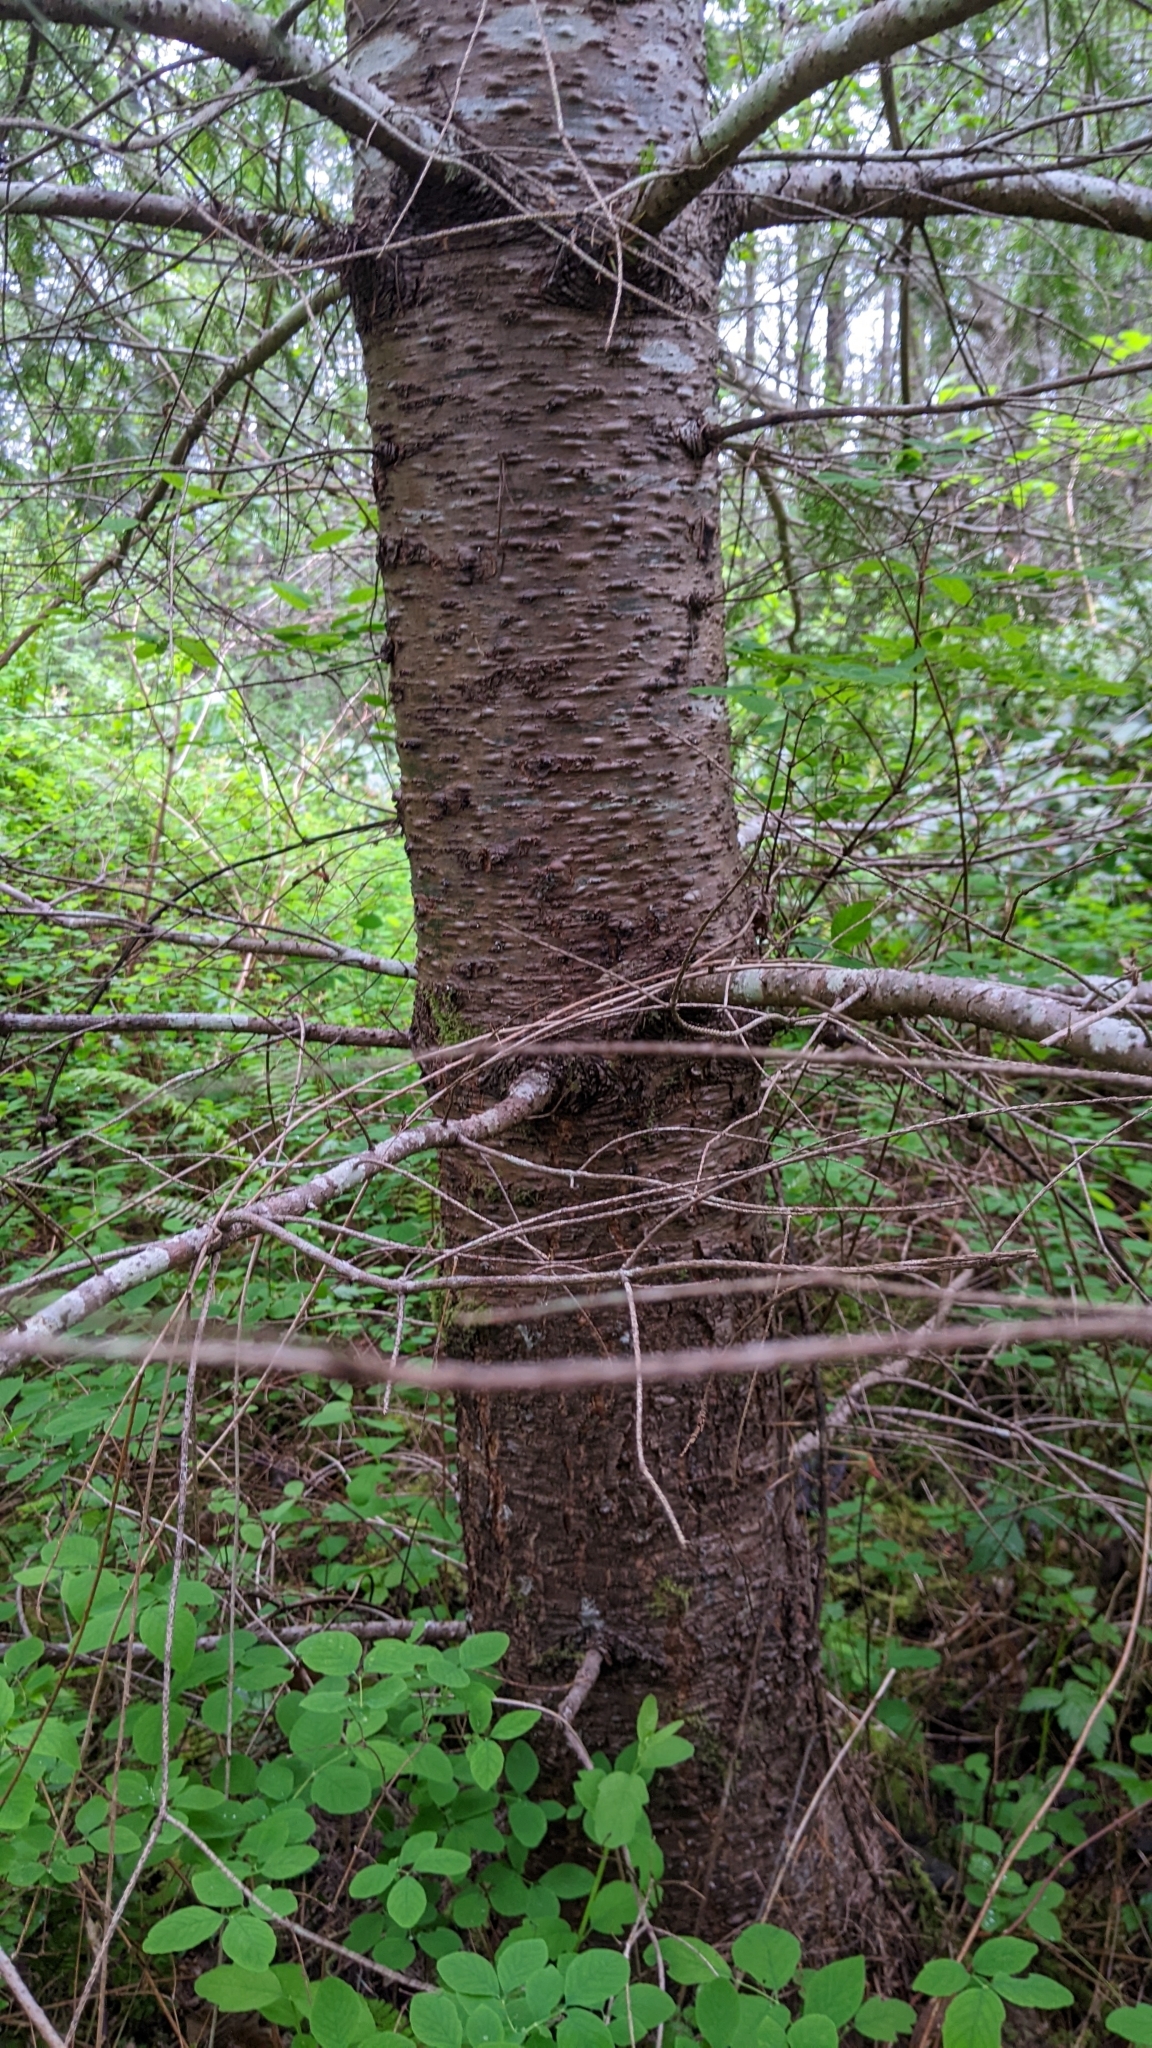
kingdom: Plantae
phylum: Tracheophyta
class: Pinopsida
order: Pinales
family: Pinaceae
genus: Pseudotsuga
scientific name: Pseudotsuga menziesii
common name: Douglas fir
